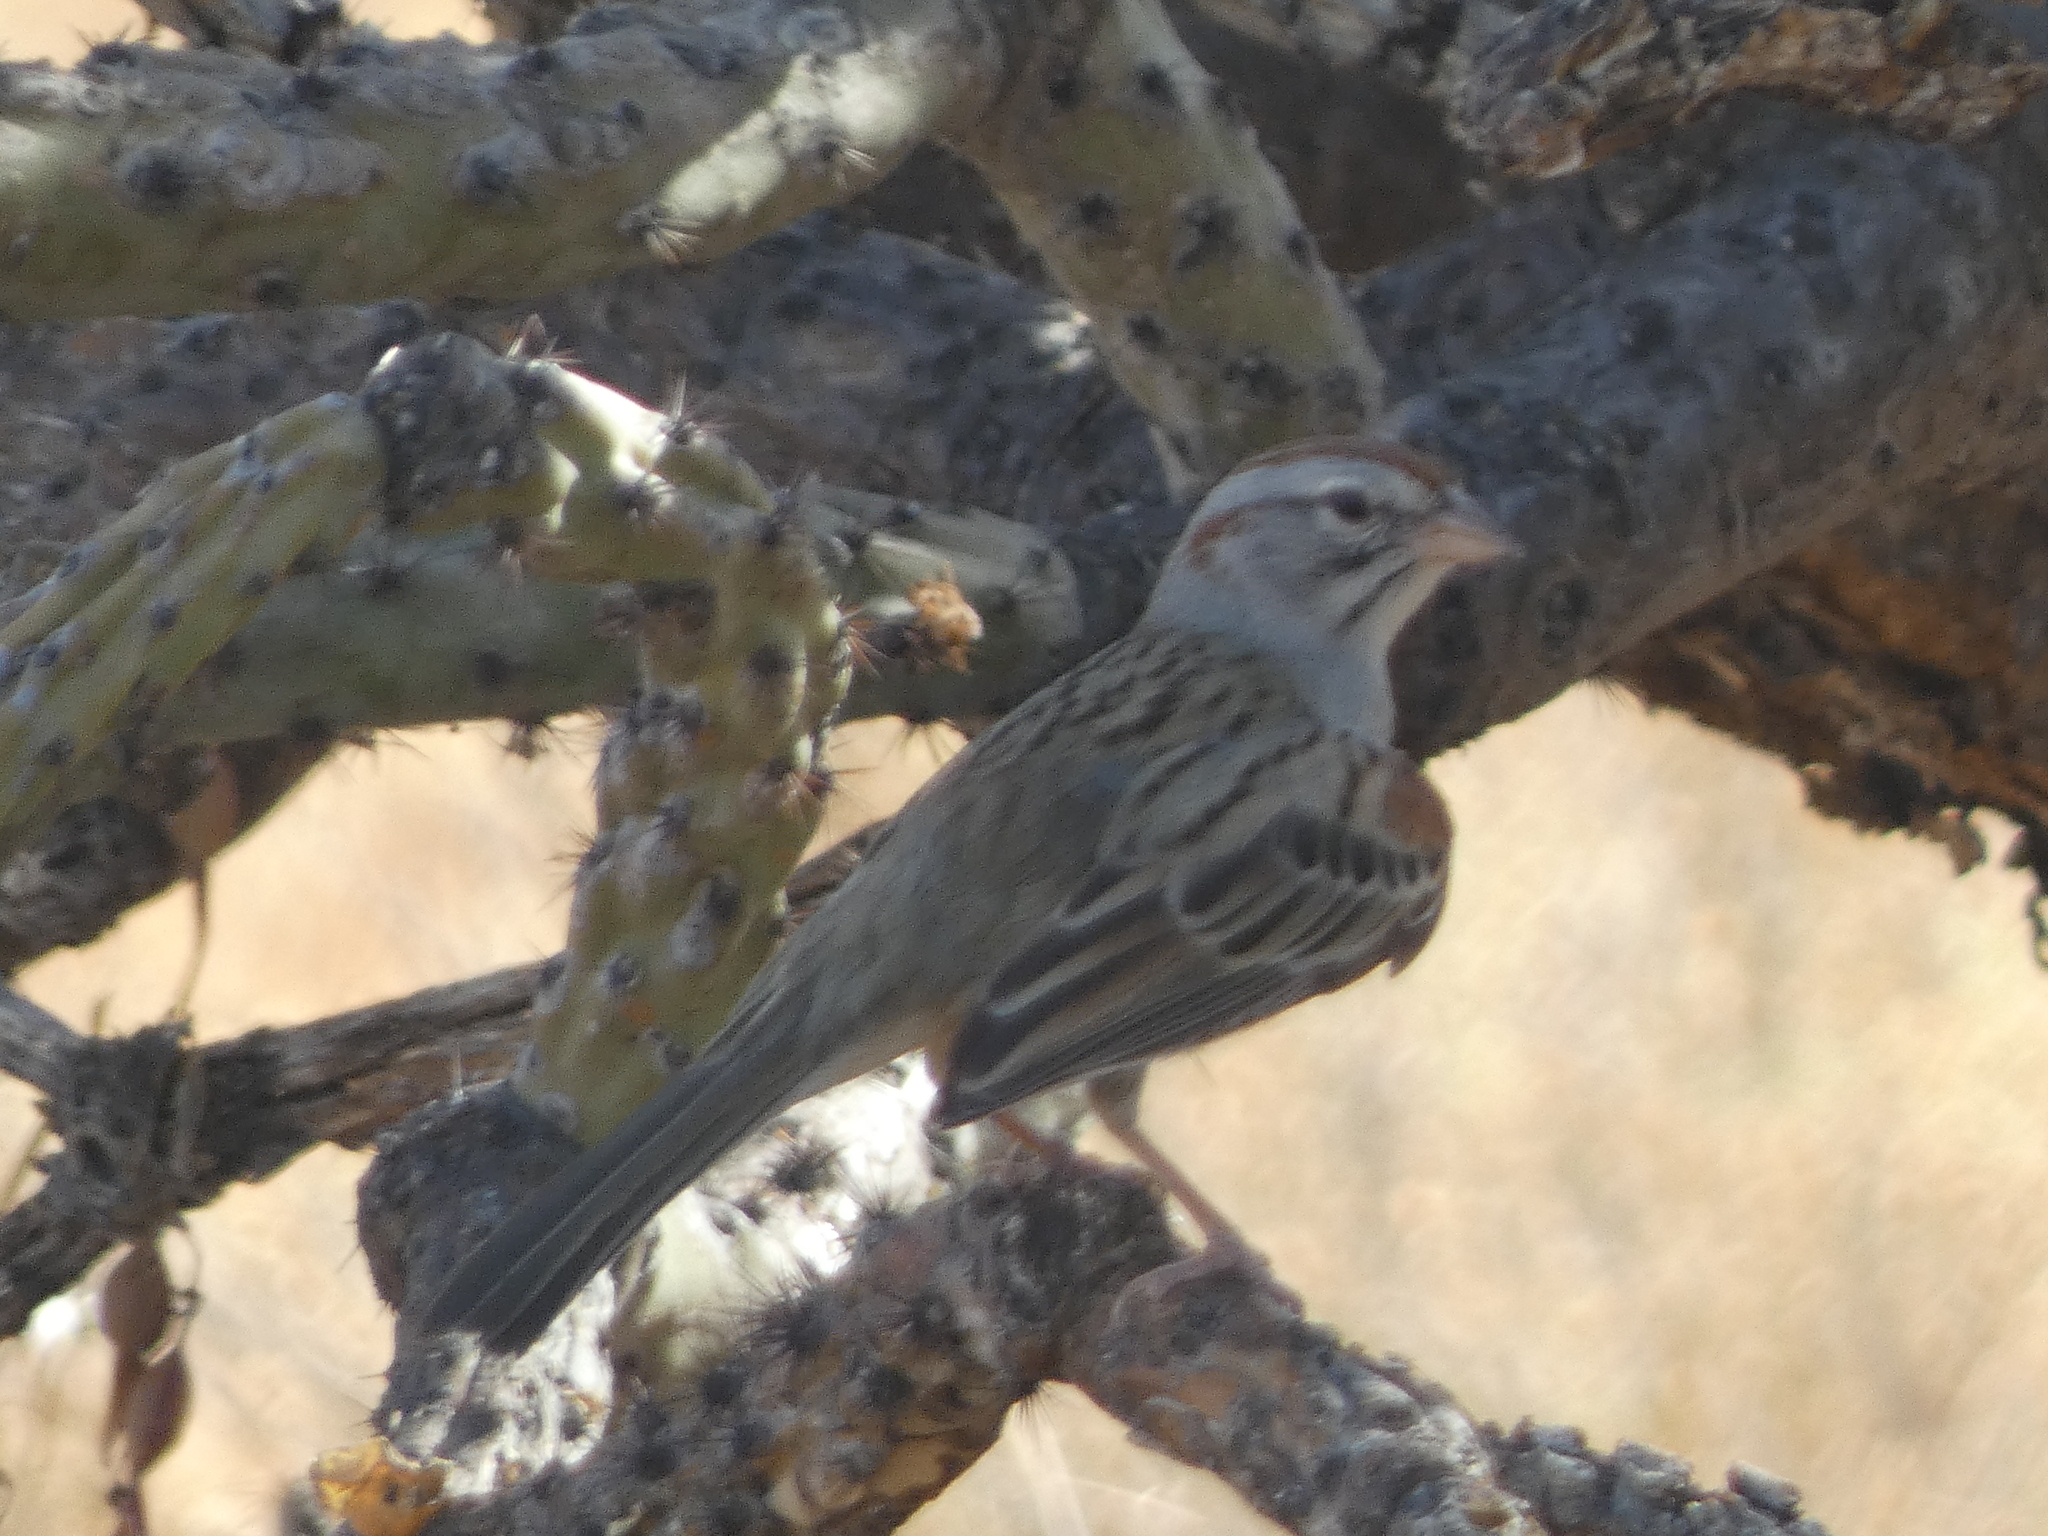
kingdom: Animalia
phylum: Chordata
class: Aves
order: Passeriformes
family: Passerellidae
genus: Peucaea
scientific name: Peucaea carpalis
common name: Rufous-winged sparrow
